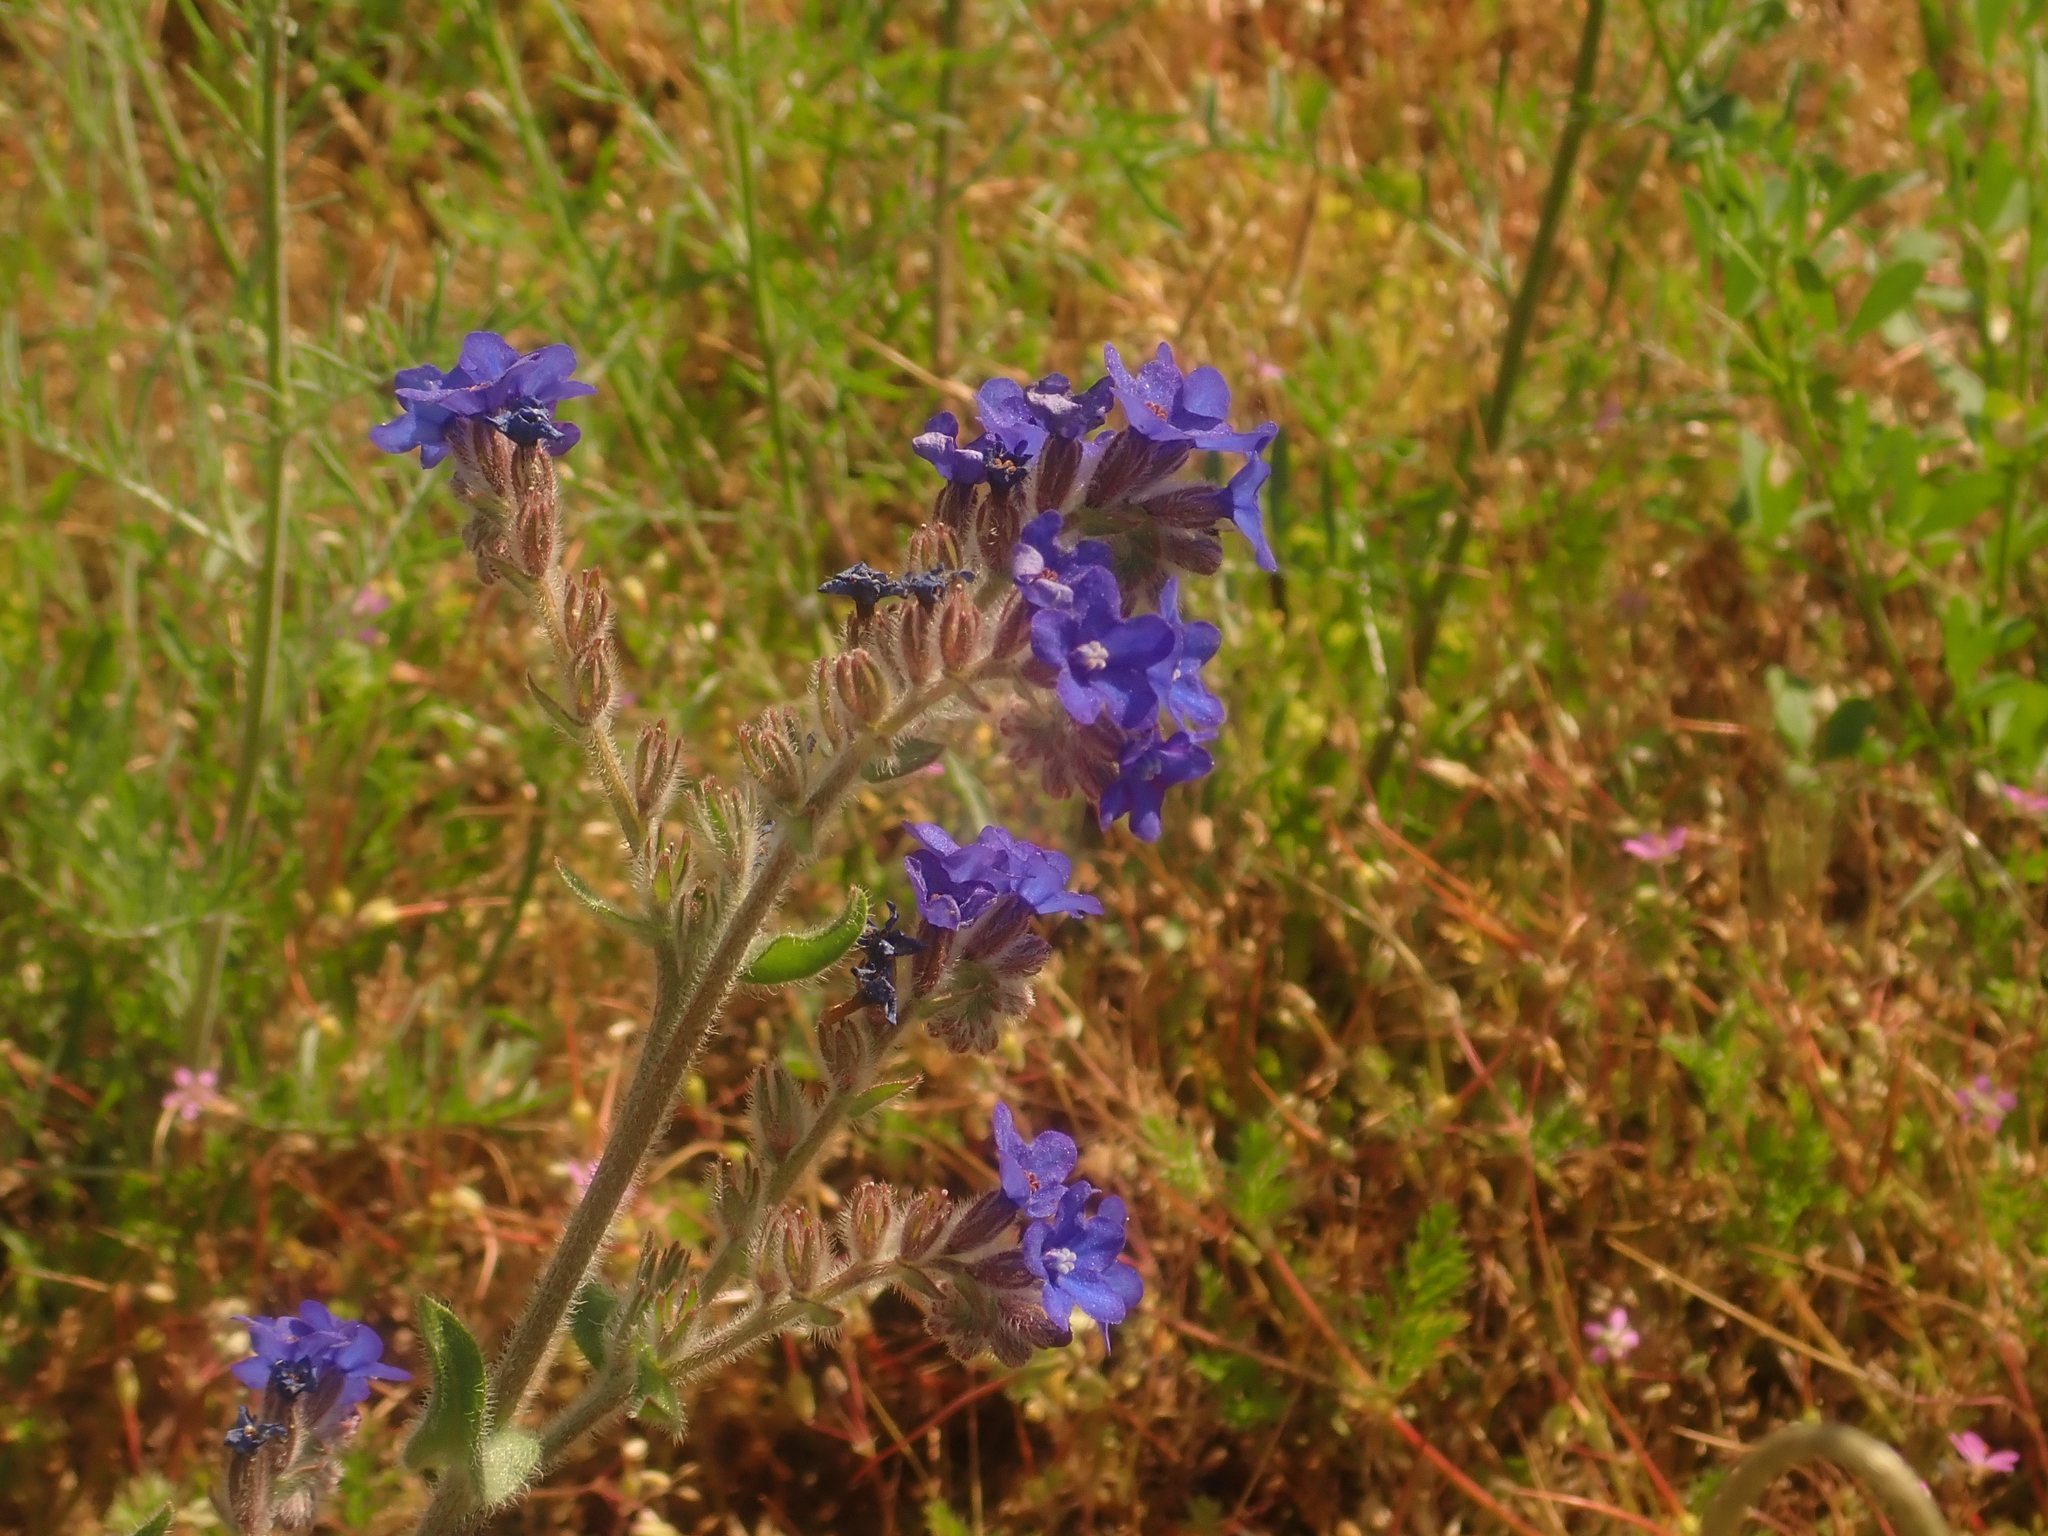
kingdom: Plantae
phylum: Tracheophyta
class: Magnoliopsida
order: Boraginales
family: Boraginaceae
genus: Anchusa
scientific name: Anchusa officinalis
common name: Alkanet
